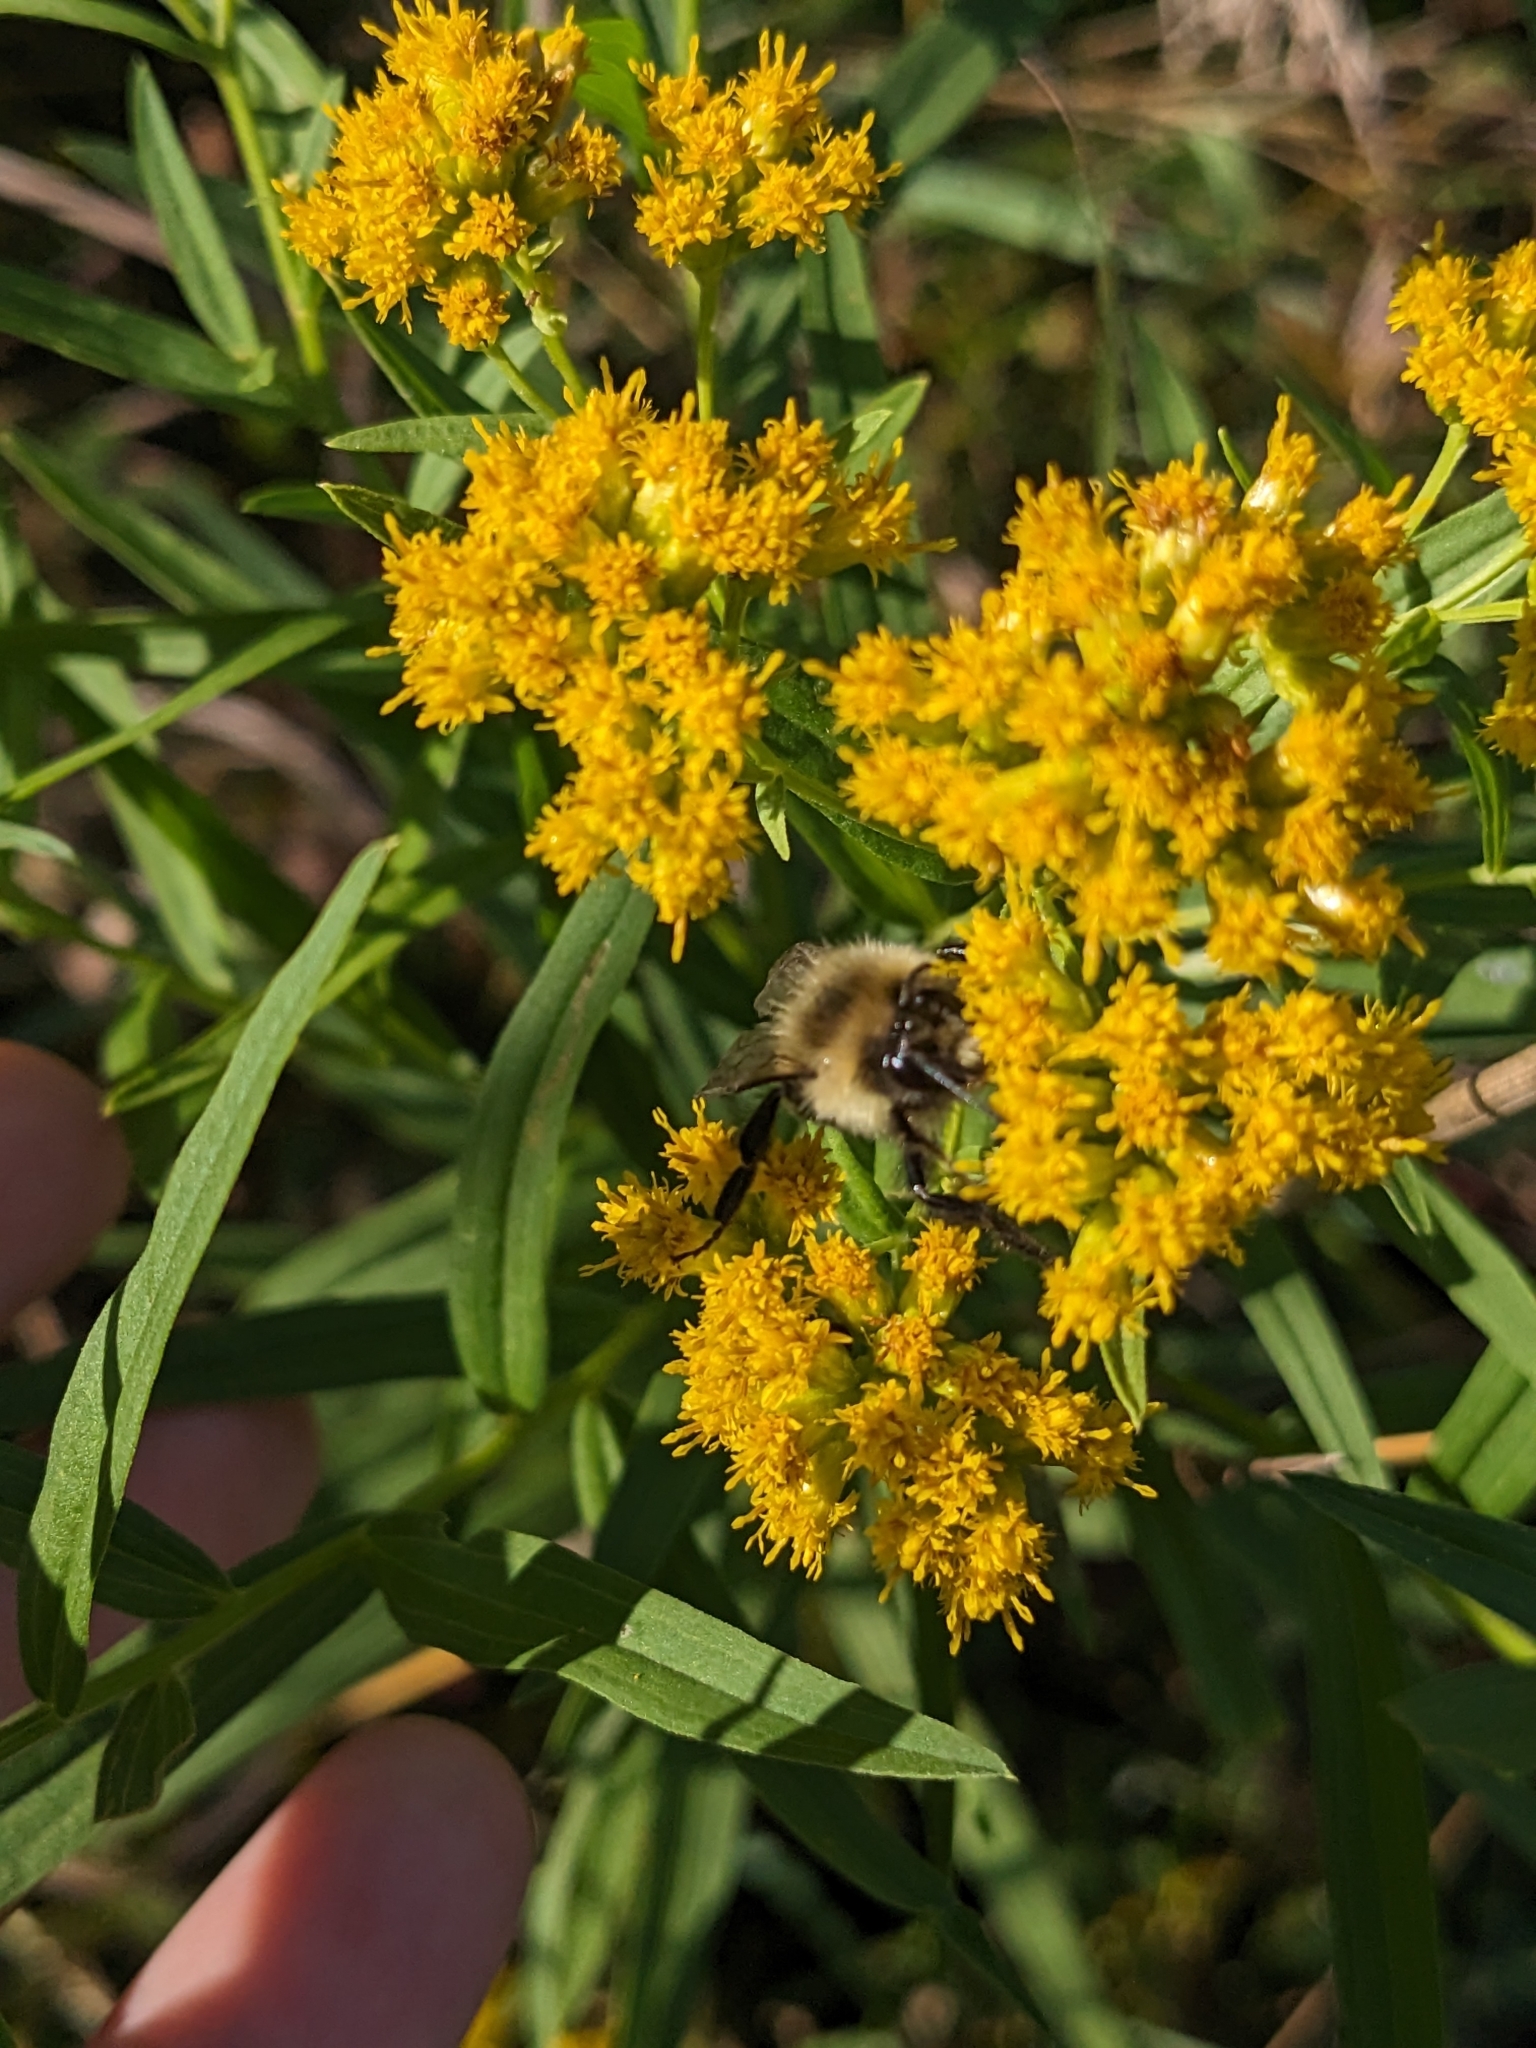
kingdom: Animalia
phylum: Arthropoda
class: Insecta
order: Hymenoptera
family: Apidae
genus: Bombus
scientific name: Bombus impatiens
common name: Common eastern bumble bee
